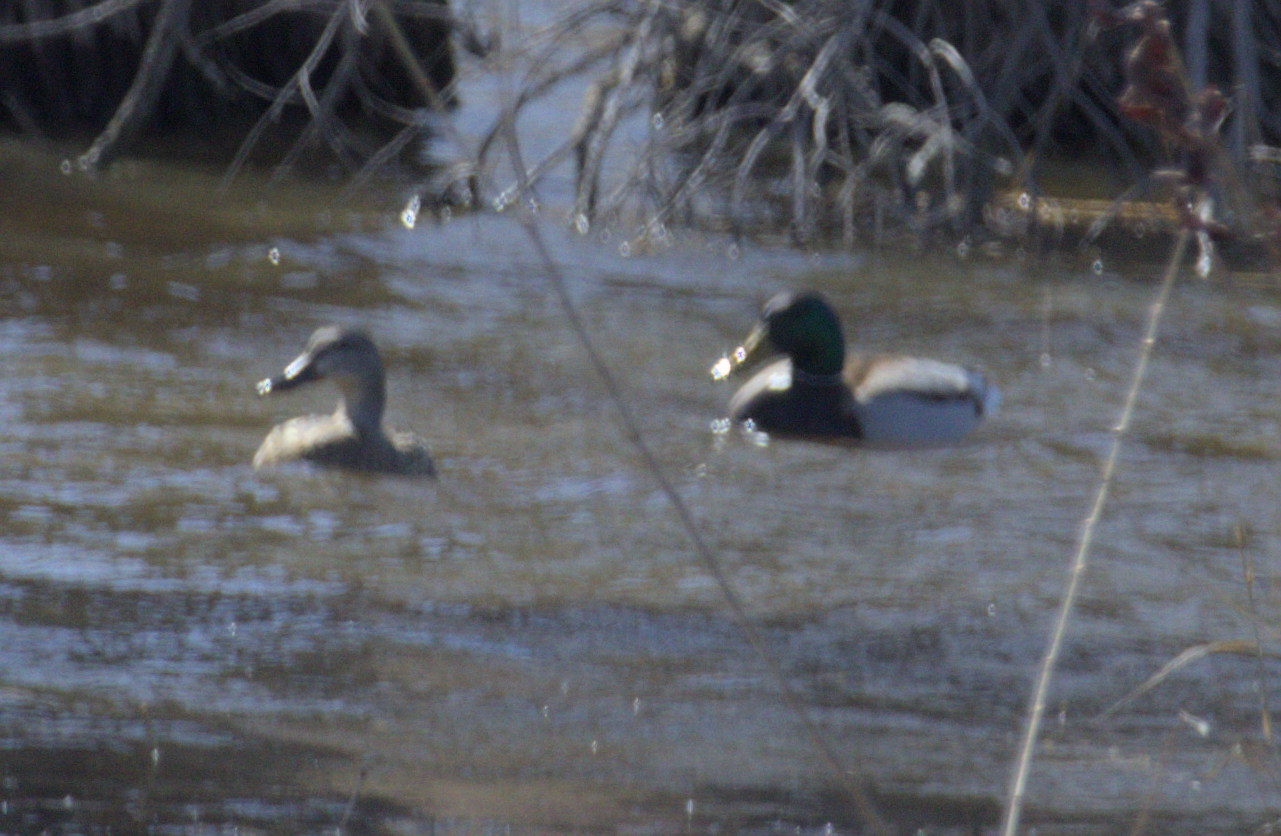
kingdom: Animalia
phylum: Chordata
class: Aves
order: Anseriformes
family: Anatidae
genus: Anas
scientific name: Anas platyrhynchos
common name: Mallard
